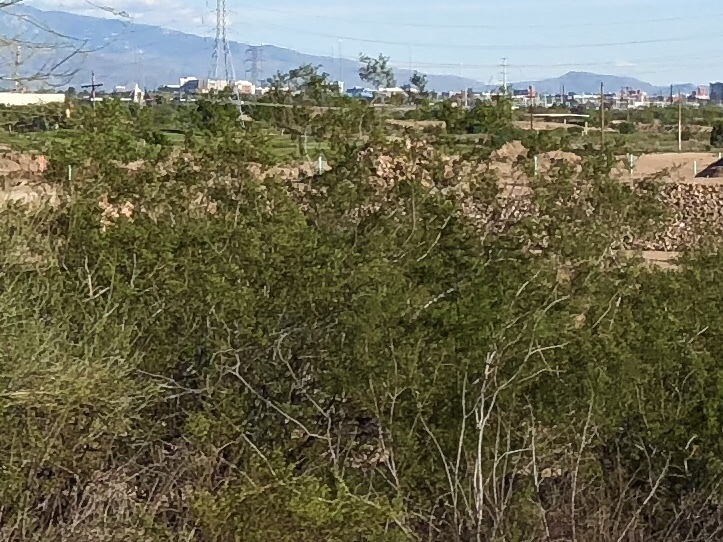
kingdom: Plantae
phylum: Tracheophyta
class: Magnoliopsida
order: Zygophyllales
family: Zygophyllaceae
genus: Larrea
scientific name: Larrea tridentata
